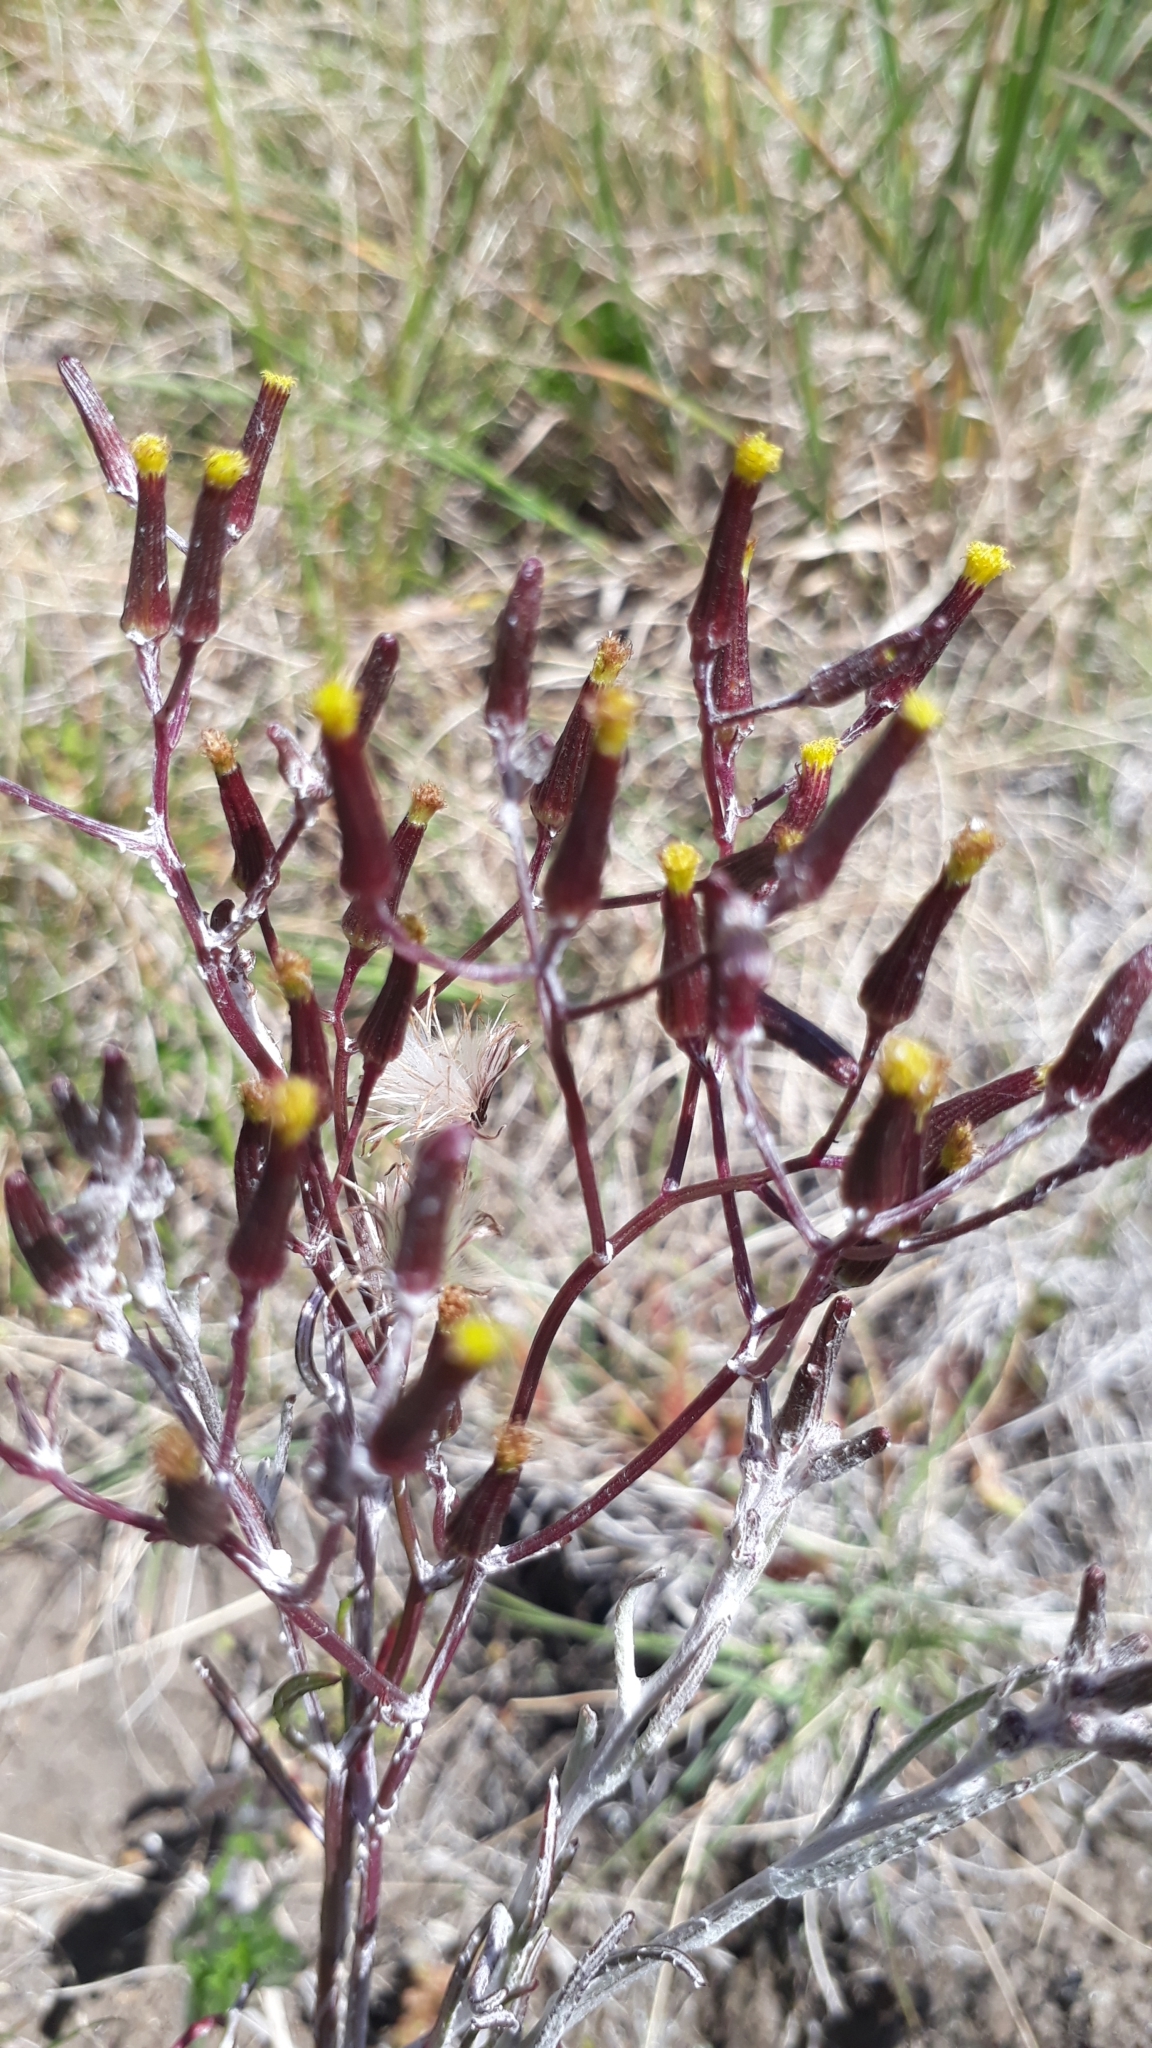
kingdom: Plantae
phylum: Tracheophyta
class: Magnoliopsida
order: Asterales
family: Asteraceae
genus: Mycelis
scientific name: Mycelis muralis
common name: Wall lettuce
